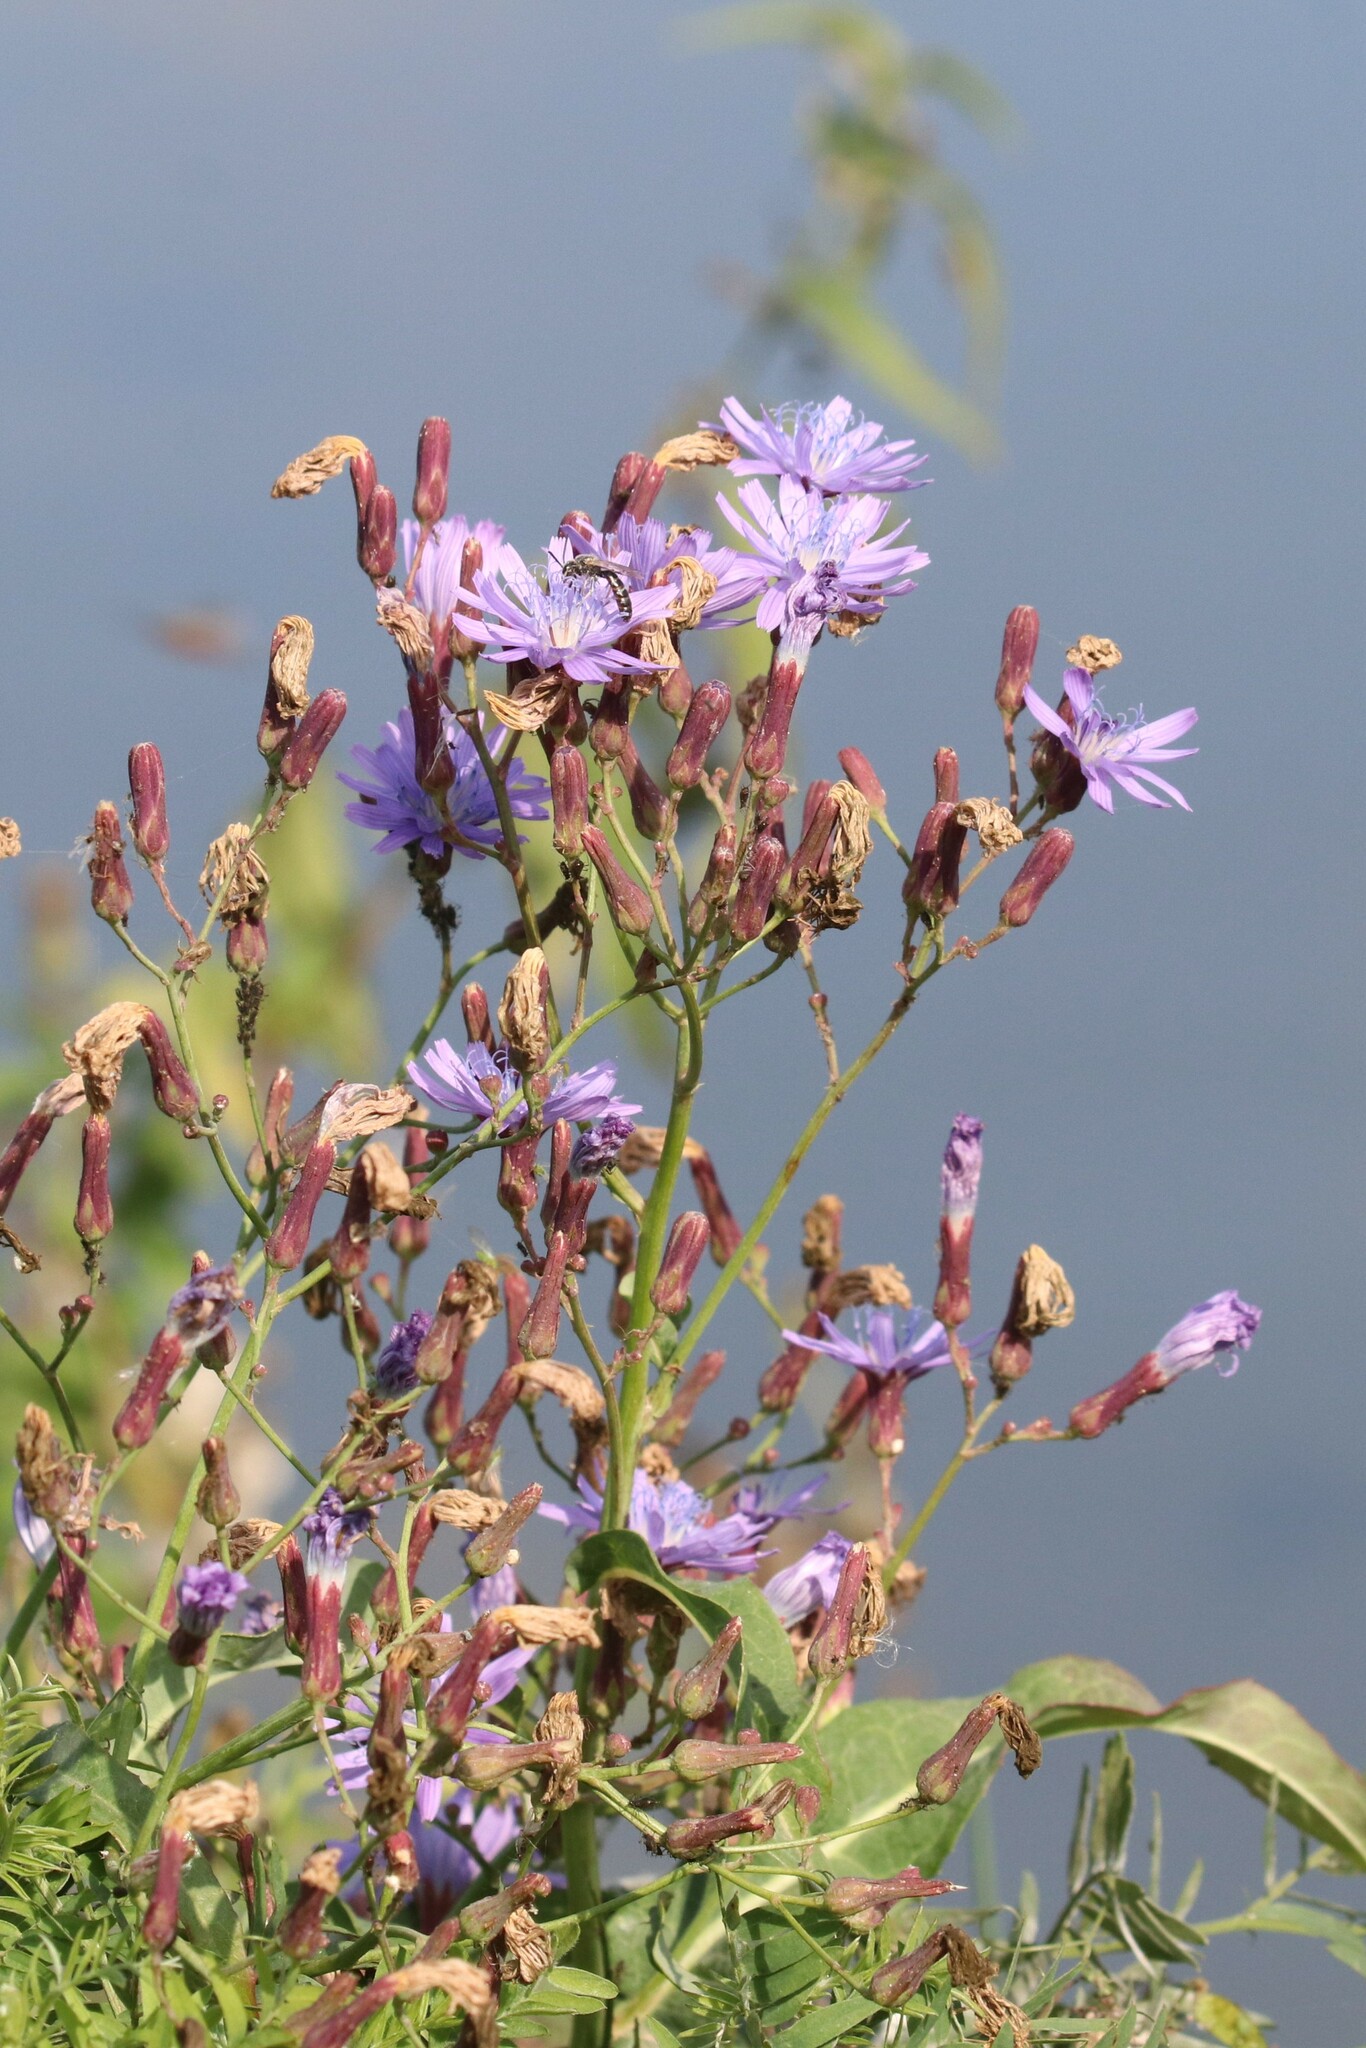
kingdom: Plantae
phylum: Tracheophyta
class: Magnoliopsida
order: Asterales
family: Asteraceae
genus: Lactuca
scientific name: Lactuca tatarica
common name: Blue lettuce
